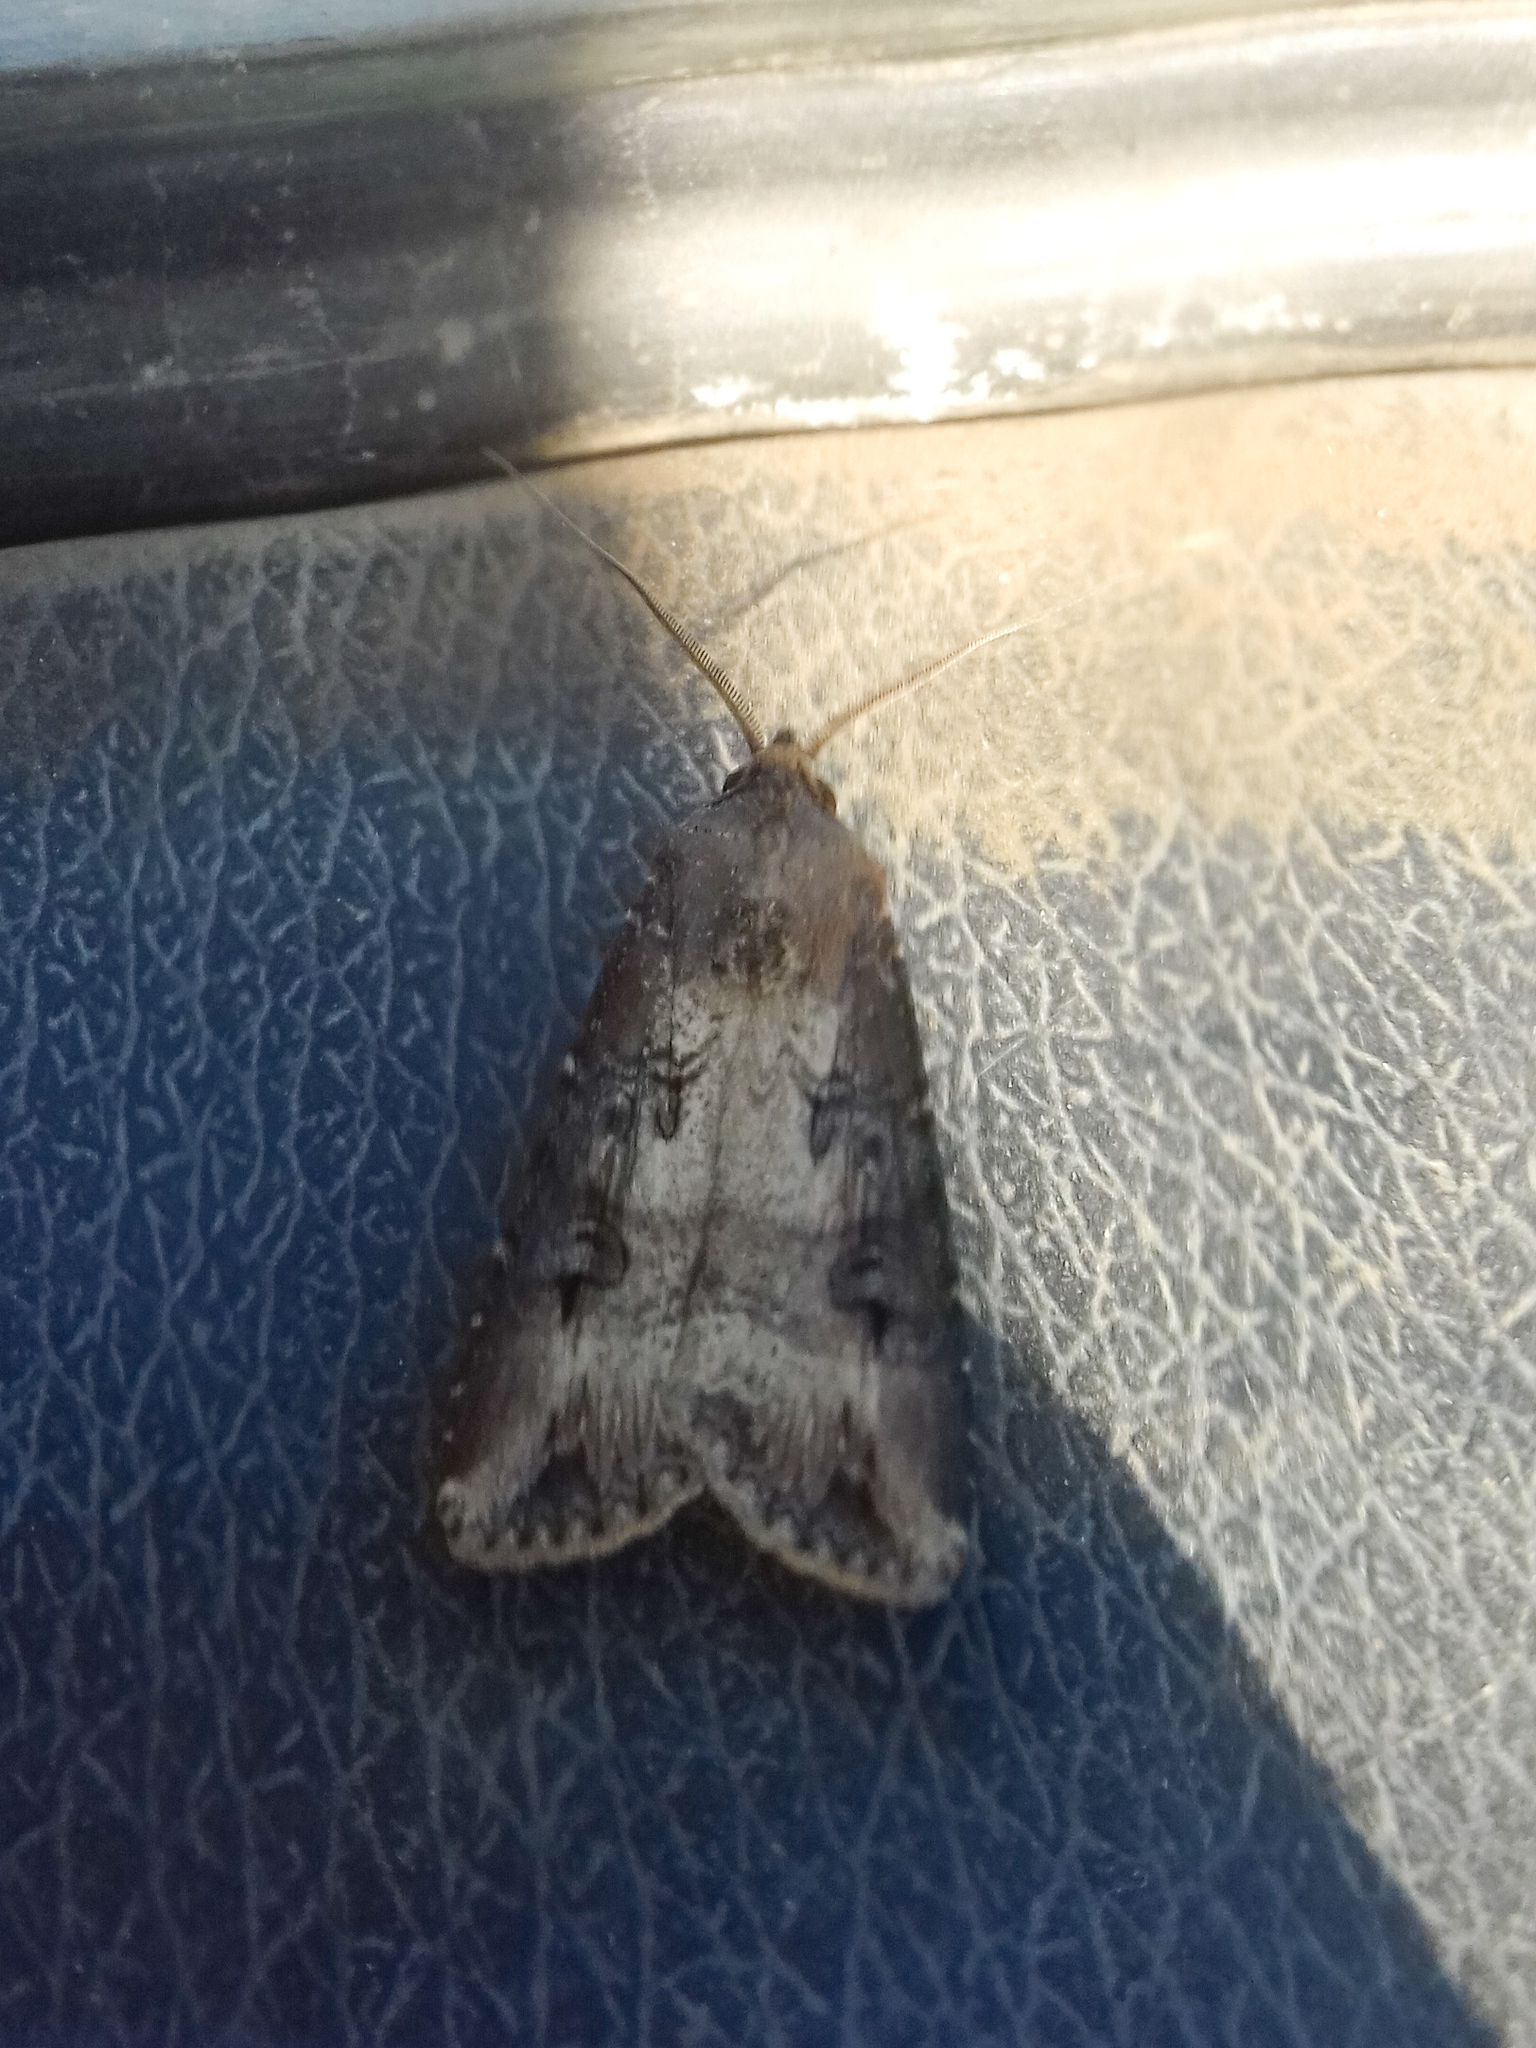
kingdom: Animalia
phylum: Arthropoda
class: Insecta
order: Lepidoptera
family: Noctuidae
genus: Agrotis
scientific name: Agrotis ipsilon
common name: Dark sword-grass
